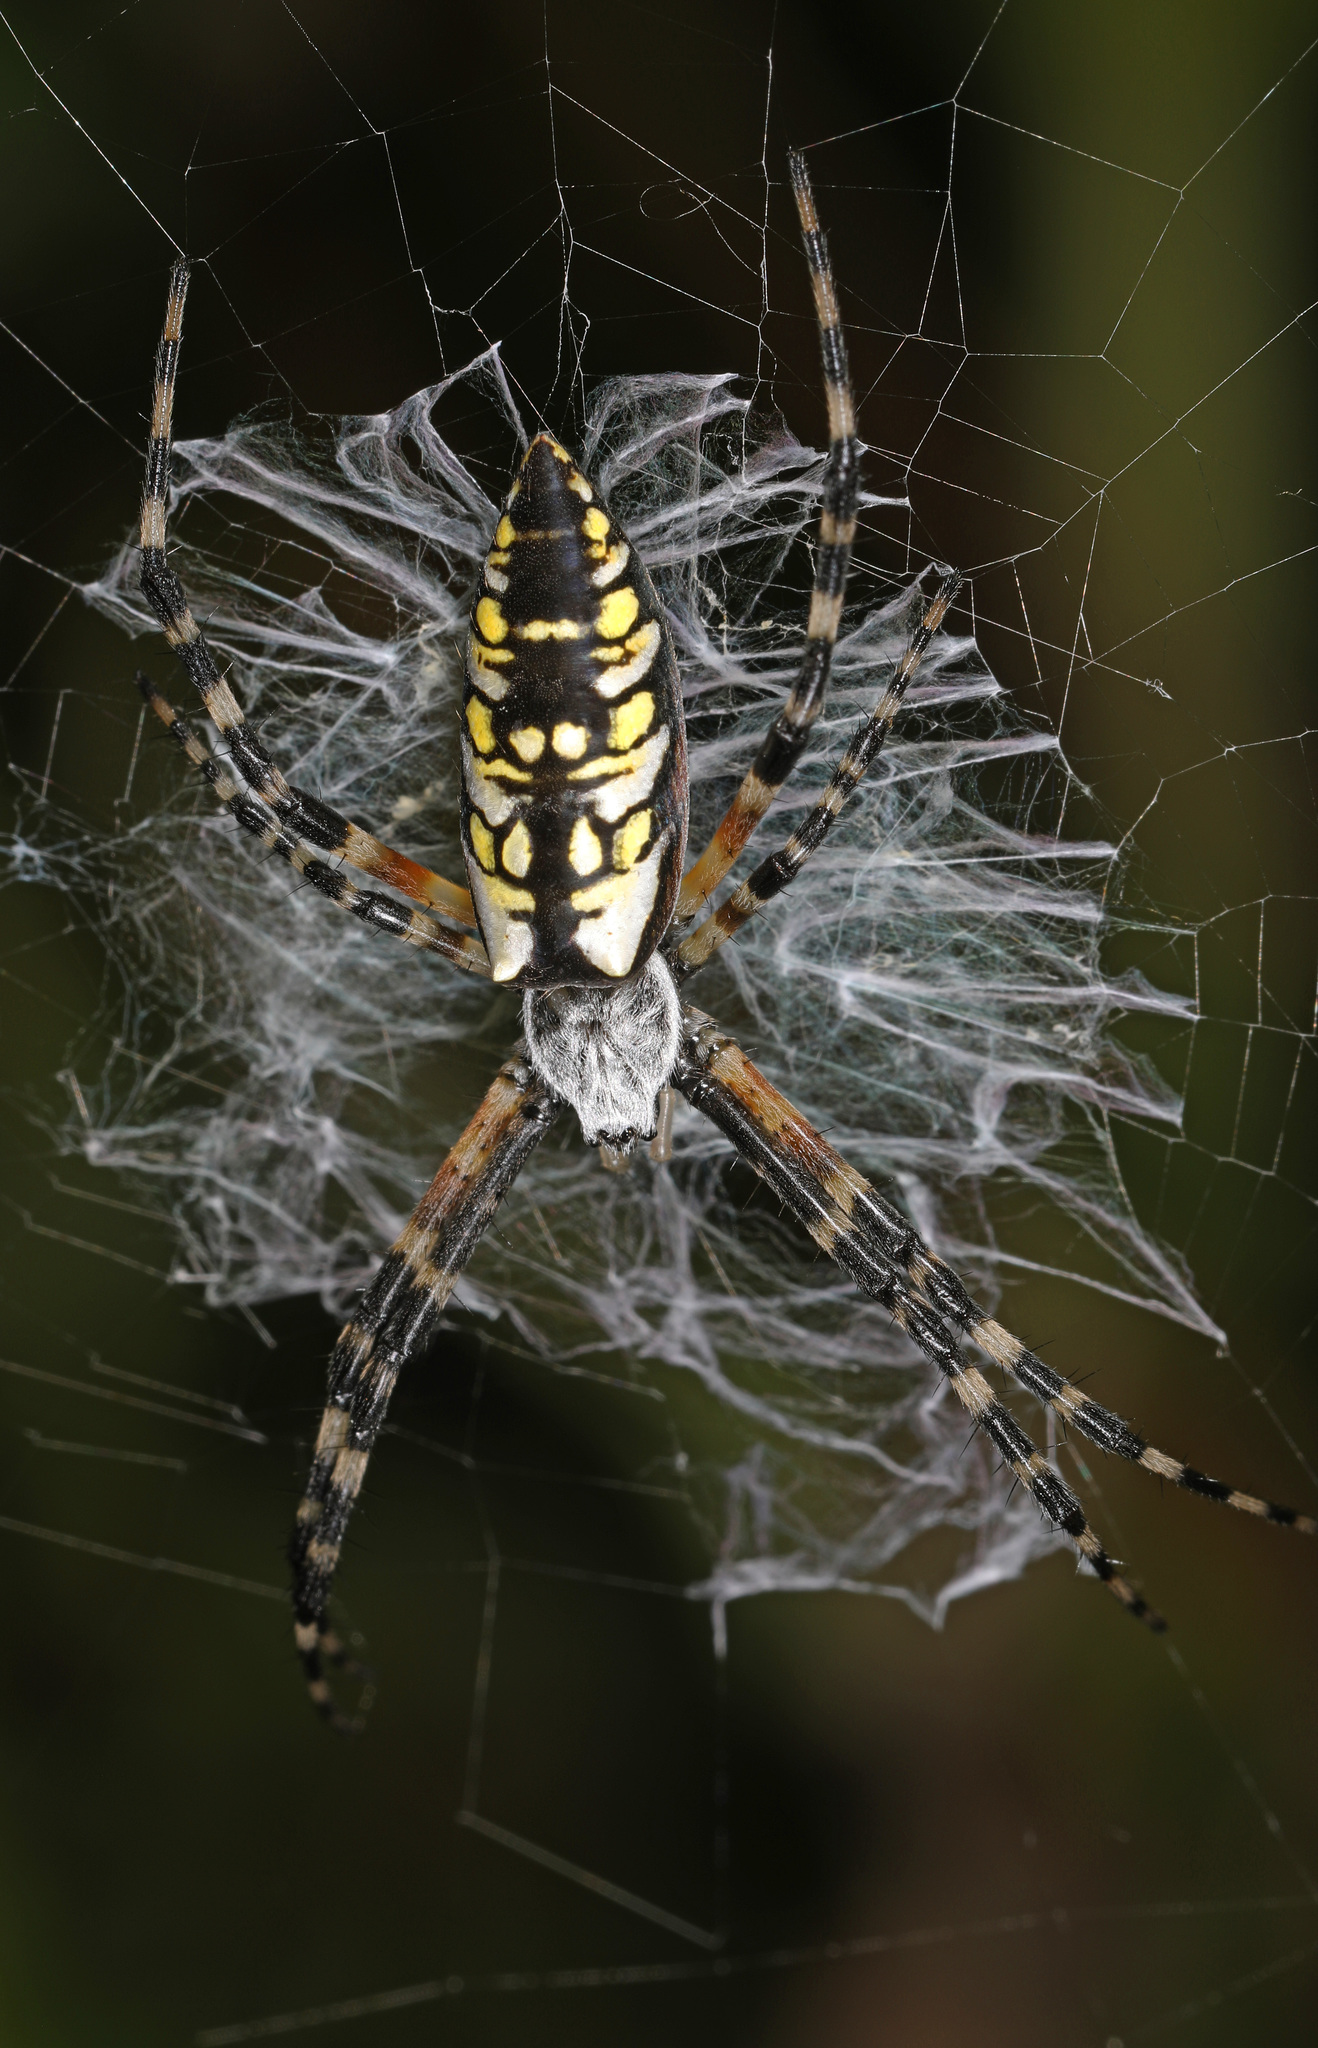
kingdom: Animalia
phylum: Arthropoda
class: Arachnida
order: Araneae
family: Araneidae
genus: Argiope
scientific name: Argiope aurantia
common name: Orb weavers
